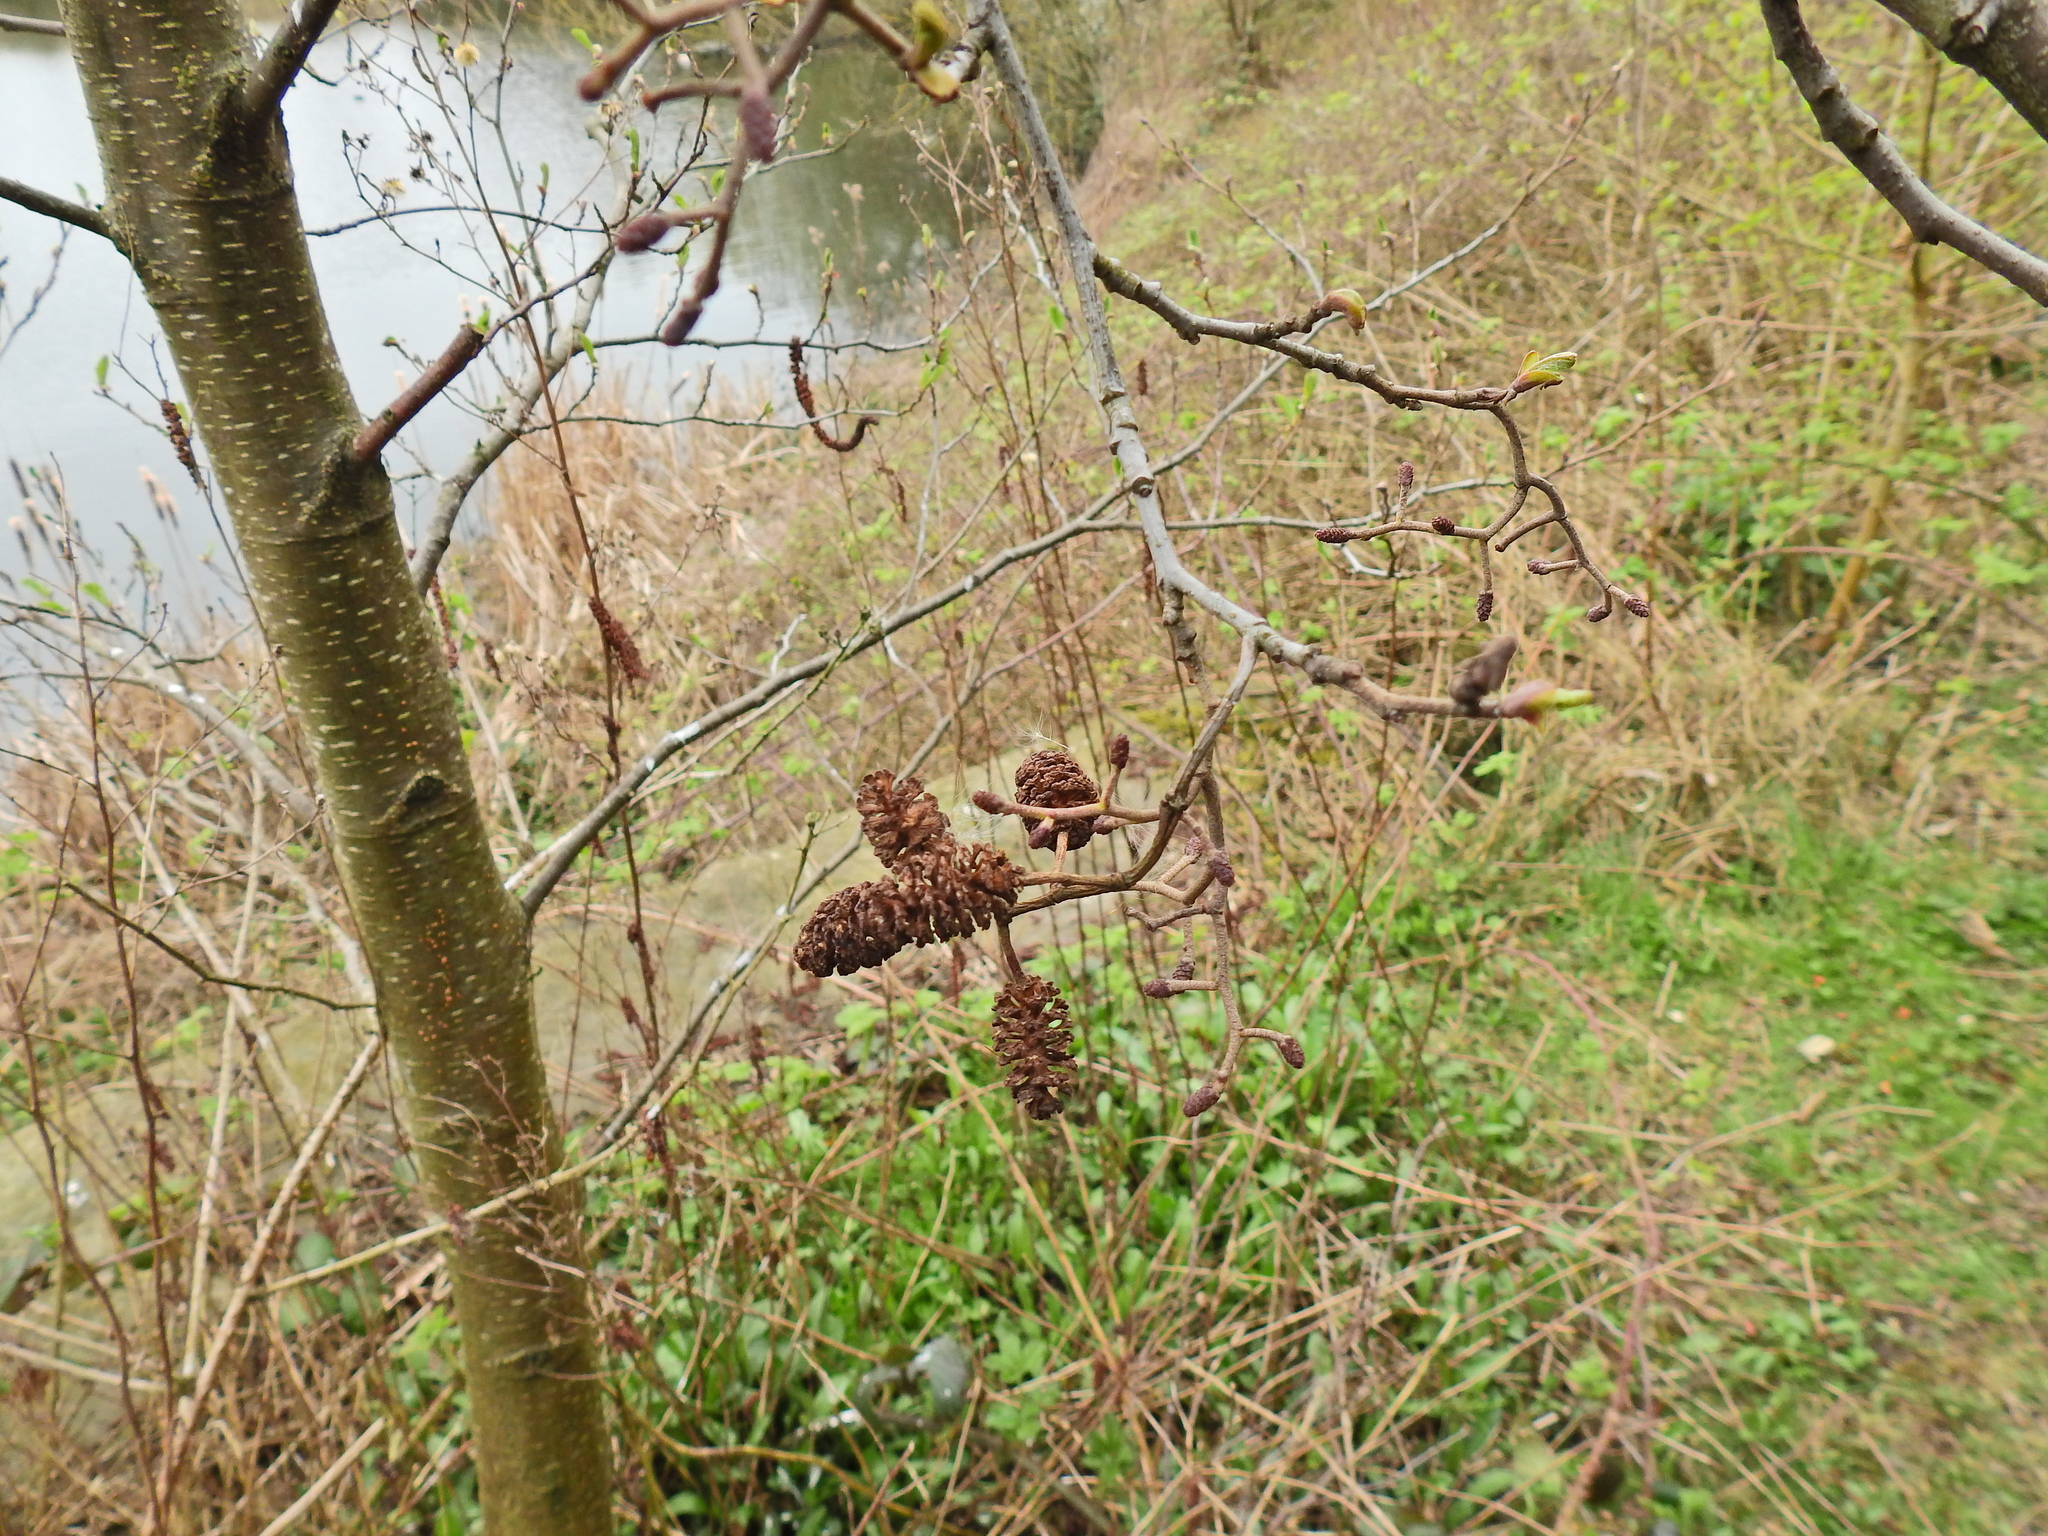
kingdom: Plantae
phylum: Tracheophyta
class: Magnoliopsida
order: Fagales
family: Betulaceae
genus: Alnus
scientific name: Alnus glutinosa
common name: Black alder
